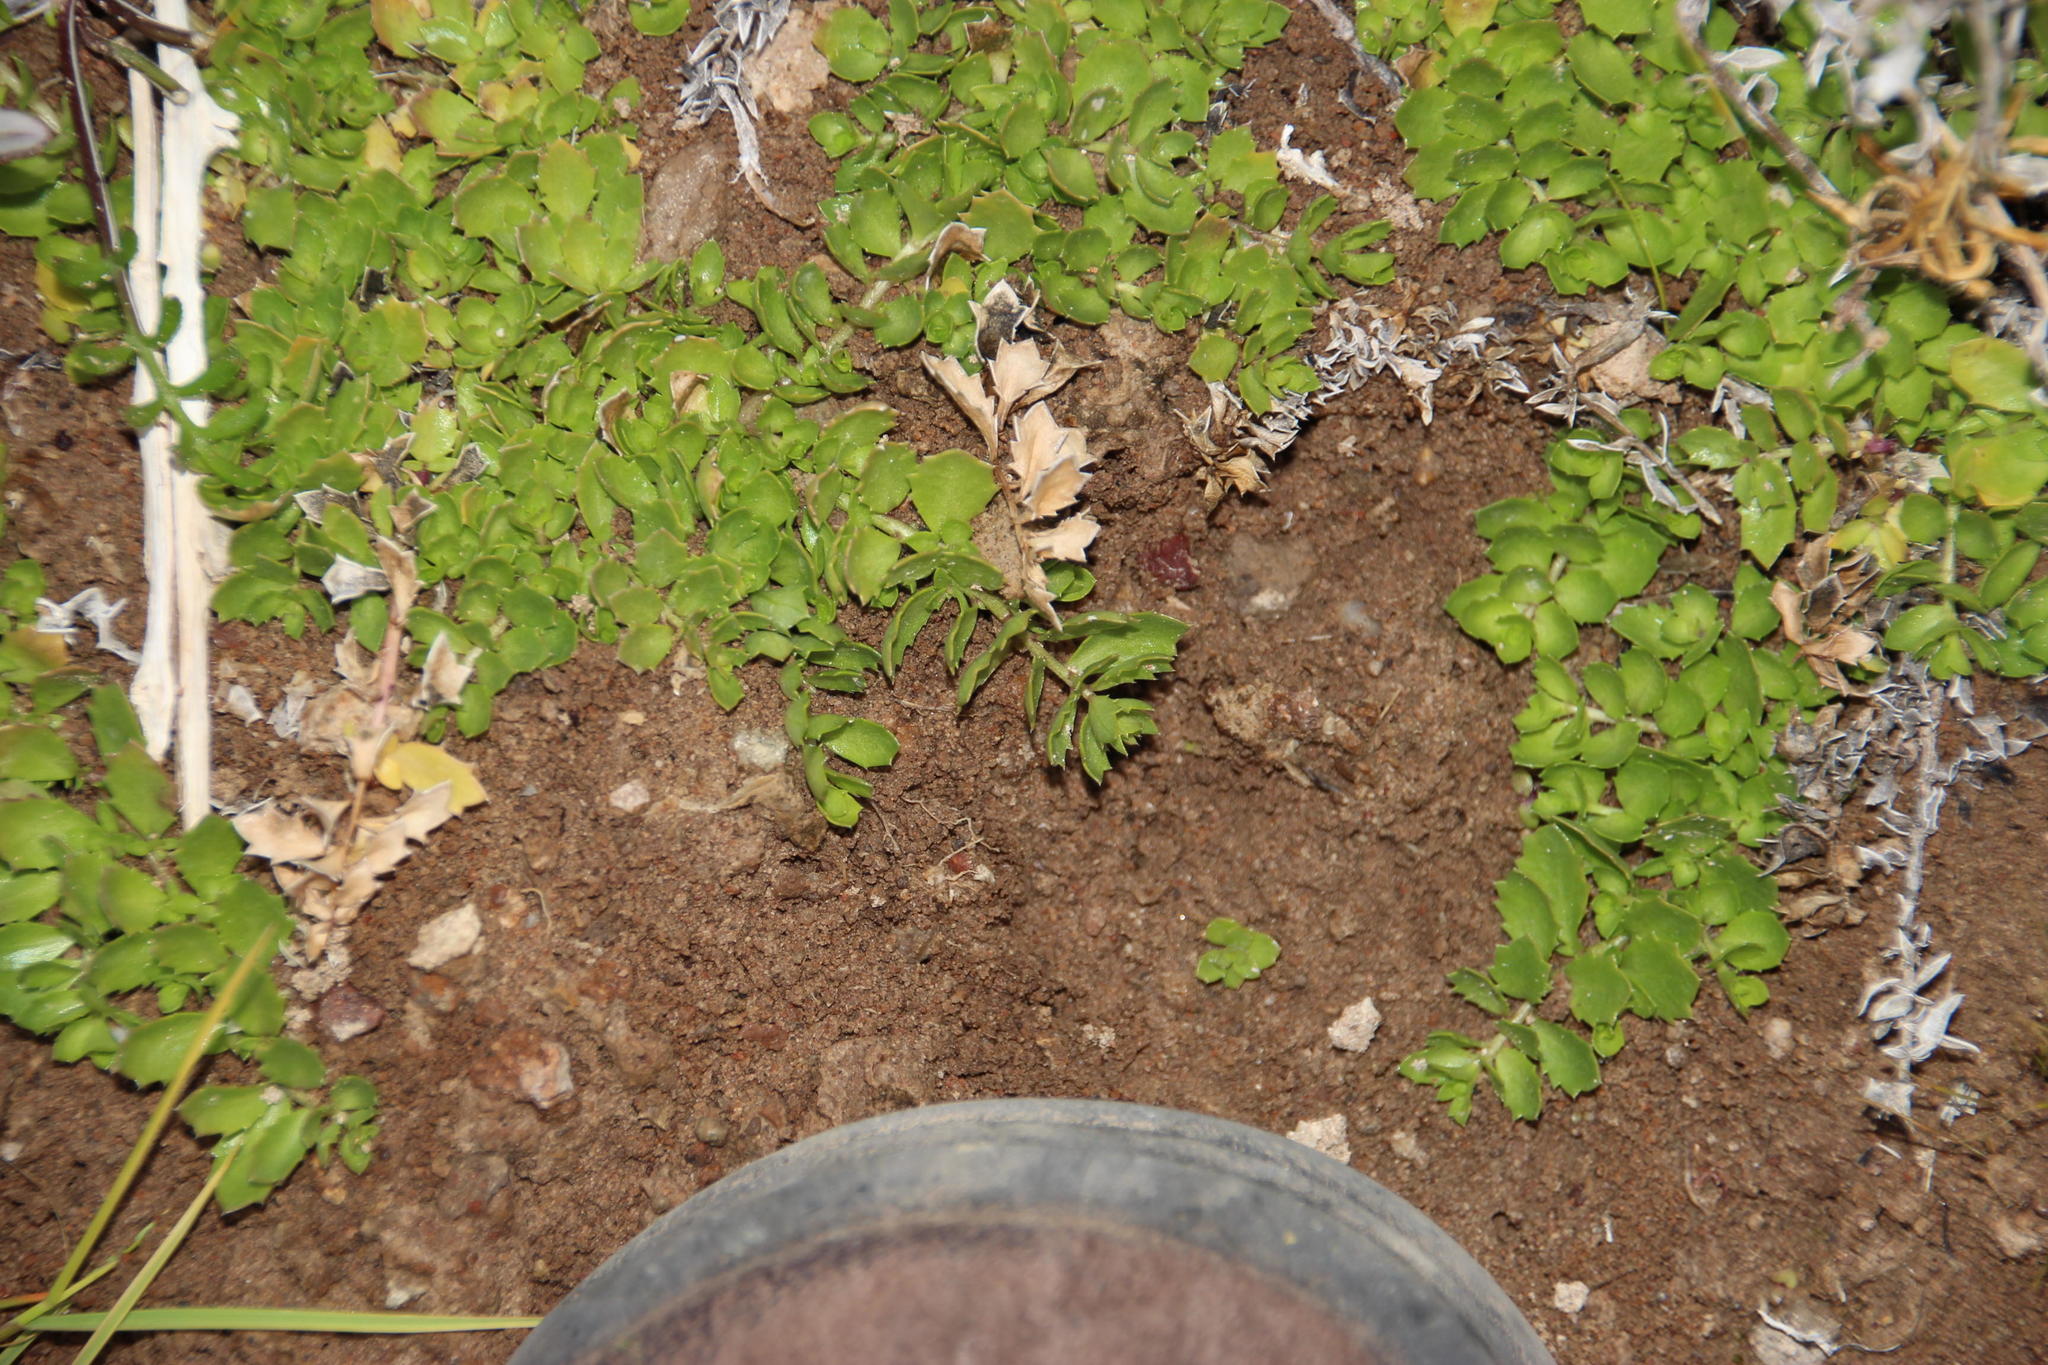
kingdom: Plantae
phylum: Tracheophyta
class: Magnoliopsida
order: Asterales
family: Asteraceae
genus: Cuspidia
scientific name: Cuspidia cernua
